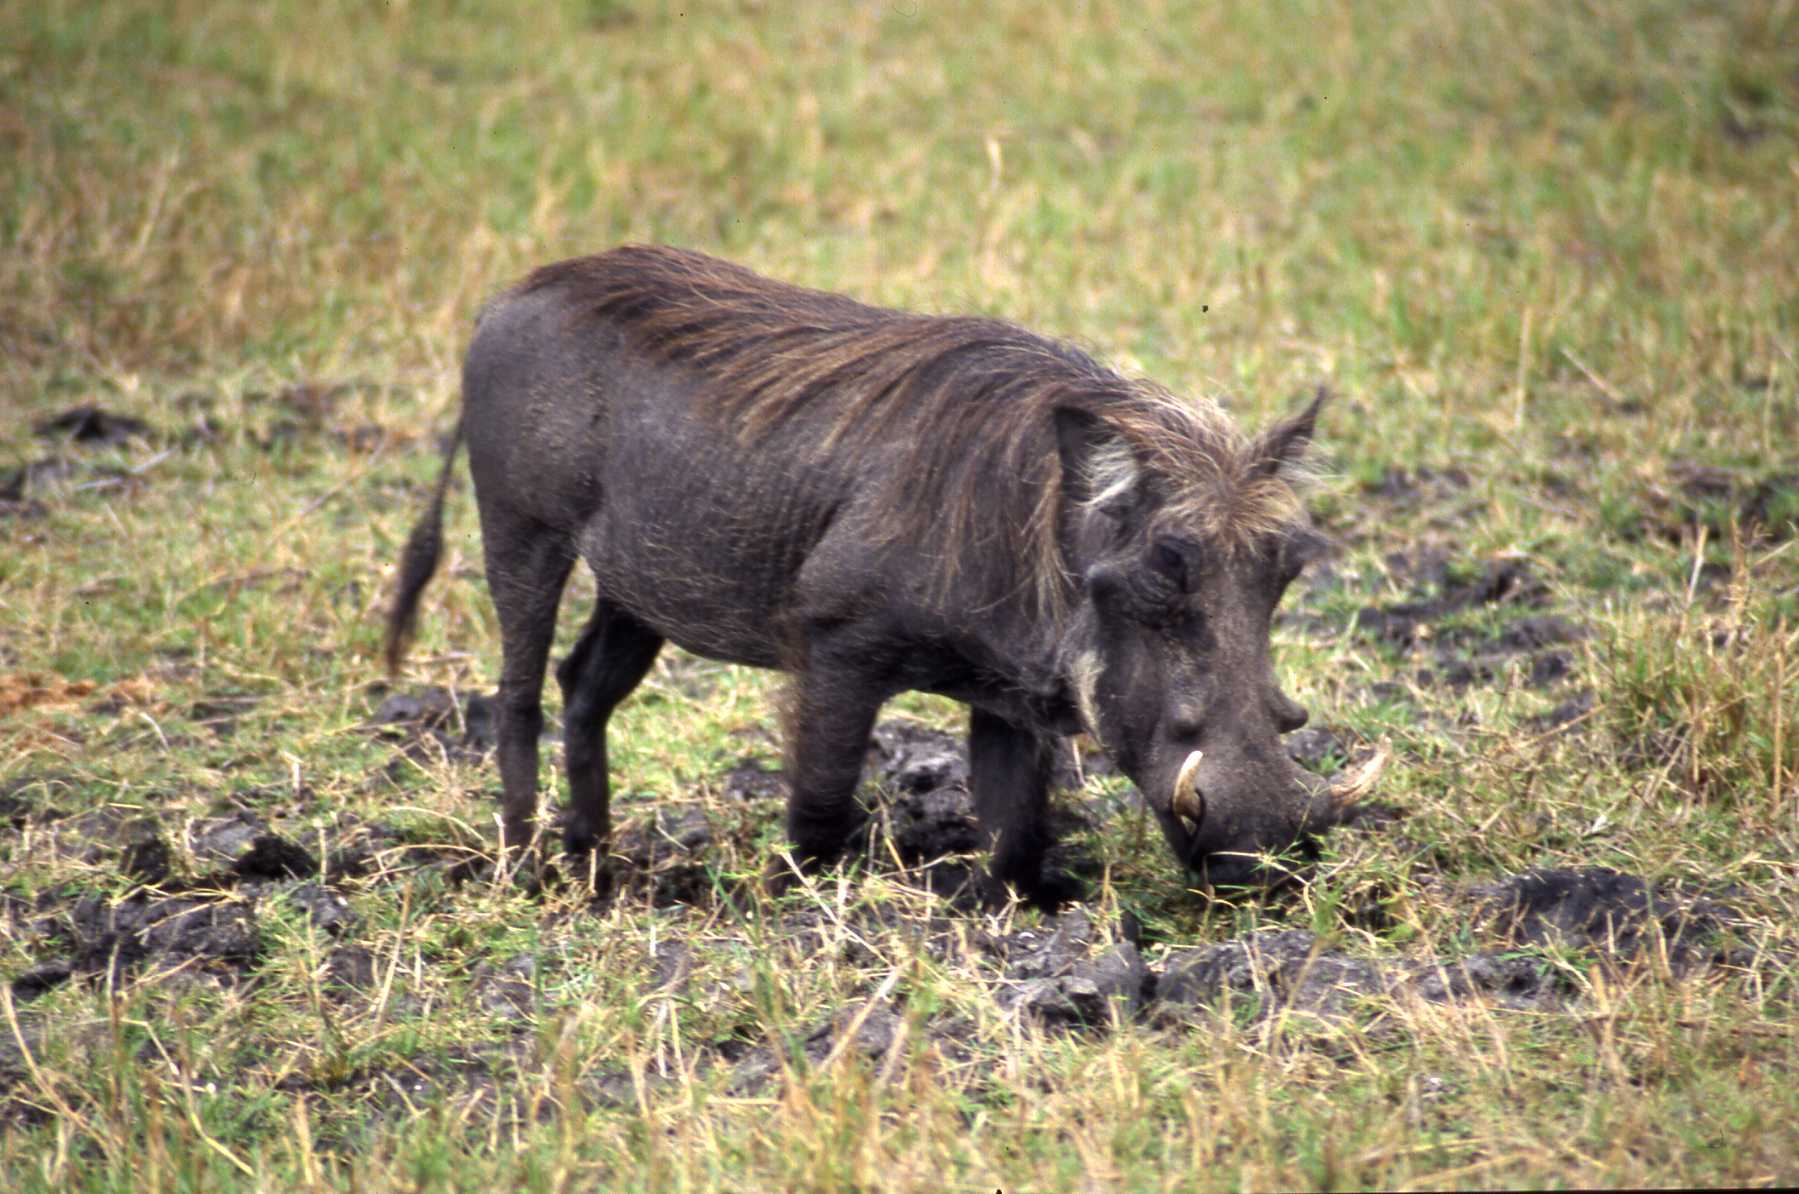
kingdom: Animalia
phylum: Chordata
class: Mammalia
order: Artiodactyla
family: Suidae
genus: Phacochoerus
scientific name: Phacochoerus africanus
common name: Common warthog
